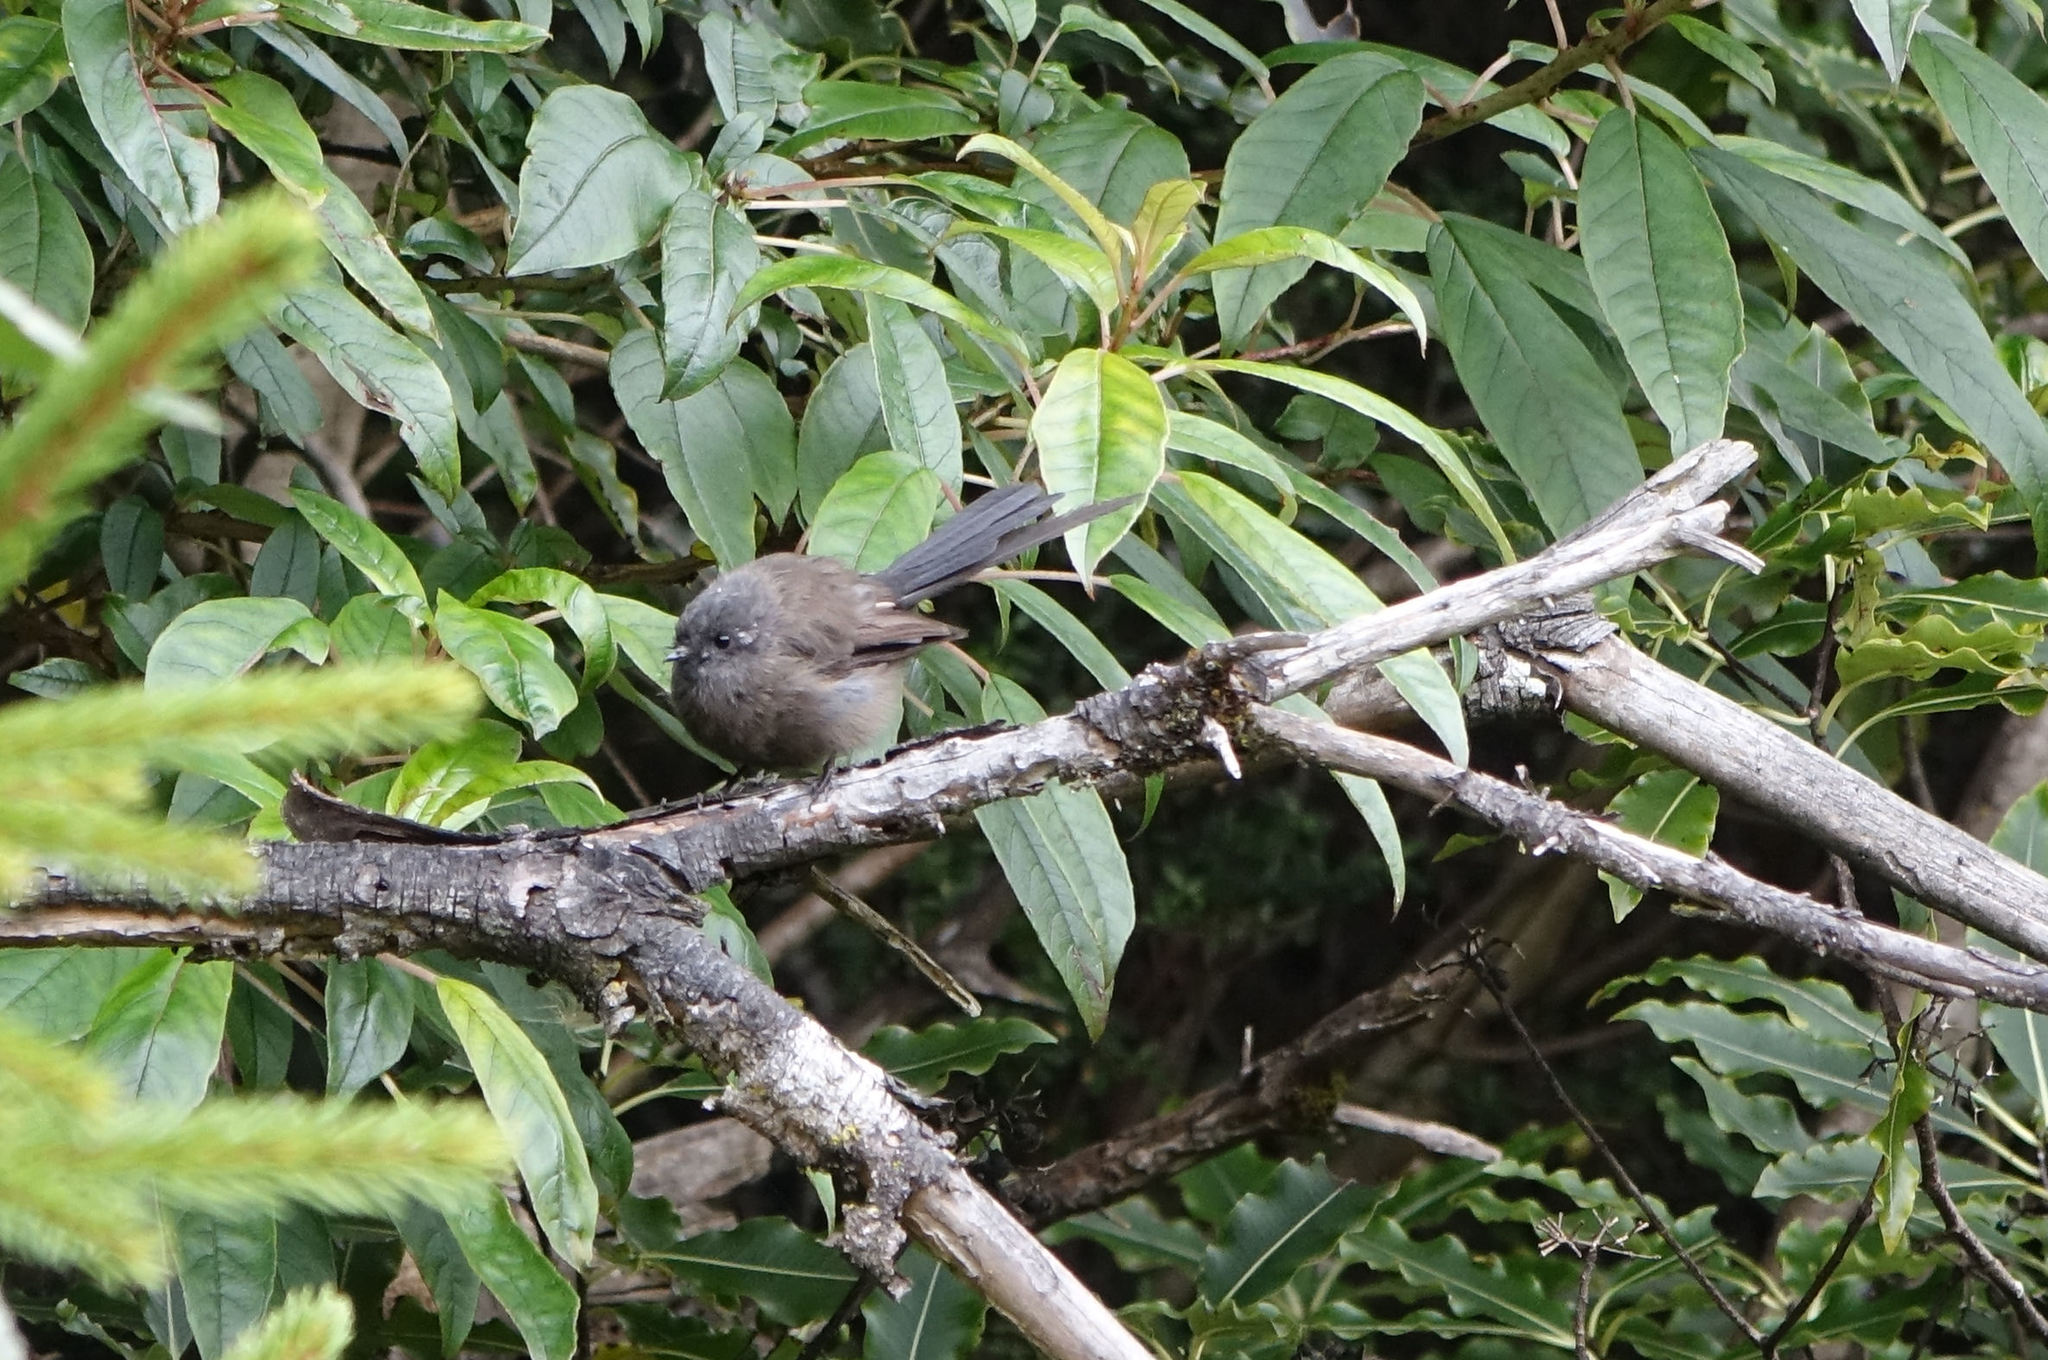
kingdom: Animalia
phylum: Chordata
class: Aves
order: Passeriformes
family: Rhipiduridae
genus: Rhipidura
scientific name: Rhipidura fuliginosa
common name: New zealand fantail
